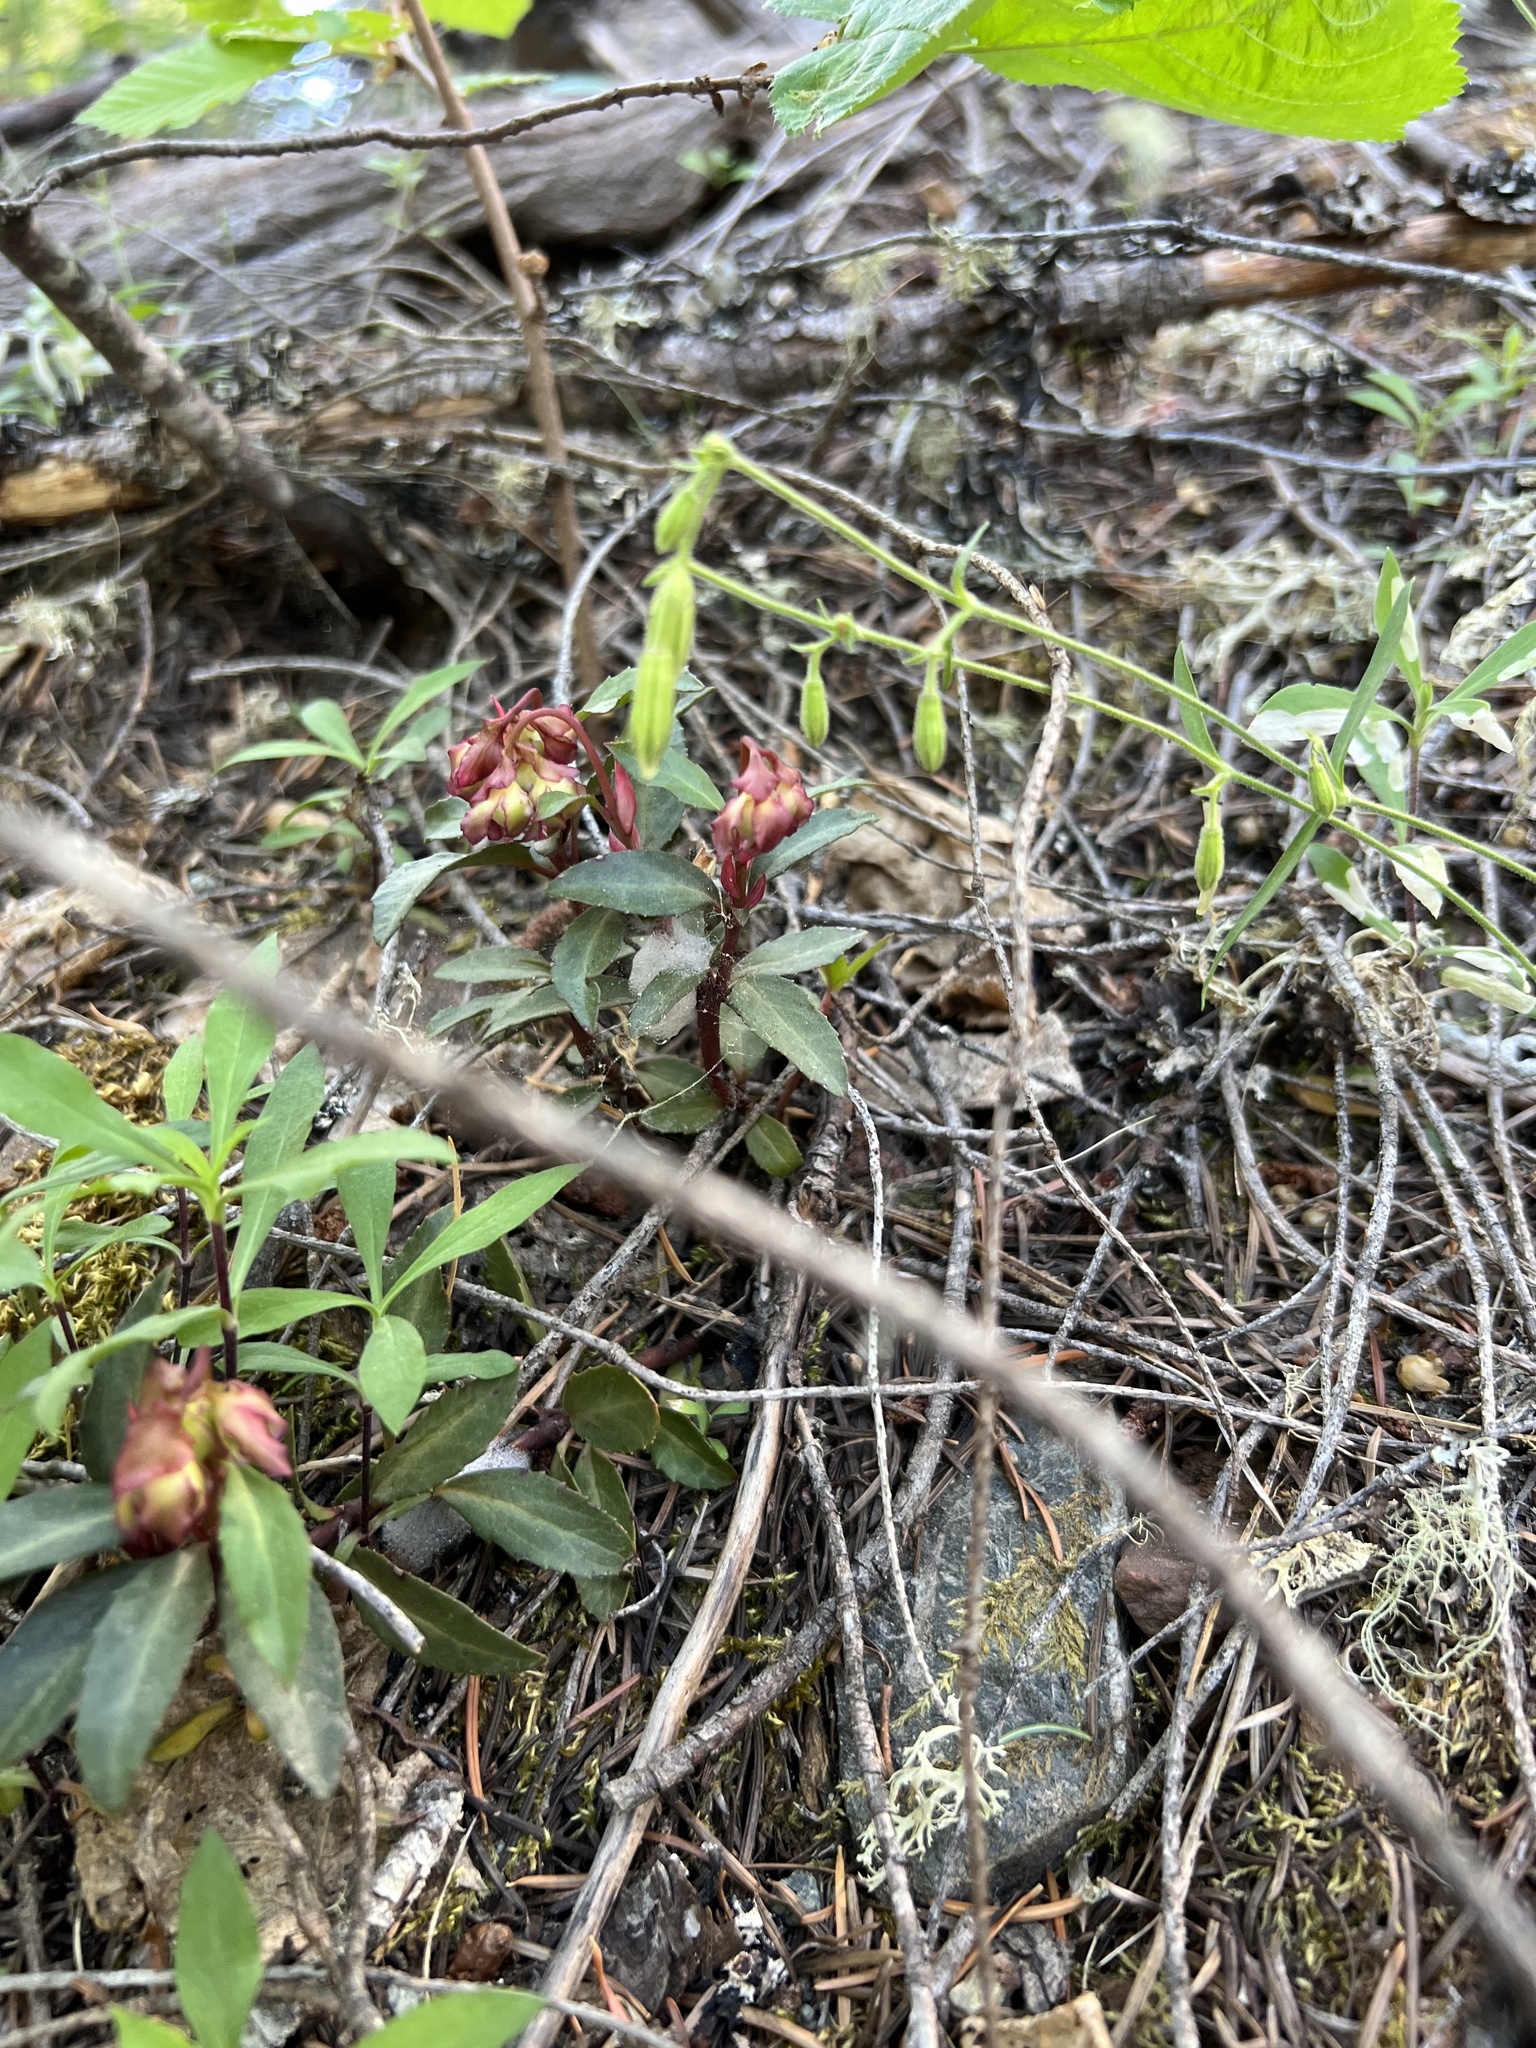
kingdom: Plantae
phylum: Tracheophyta
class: Magnoliopsida
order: Ericales
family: Ericaceae
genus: Chimaphila
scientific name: Chimaphila menziesii
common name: Menzies' pipsissewa
